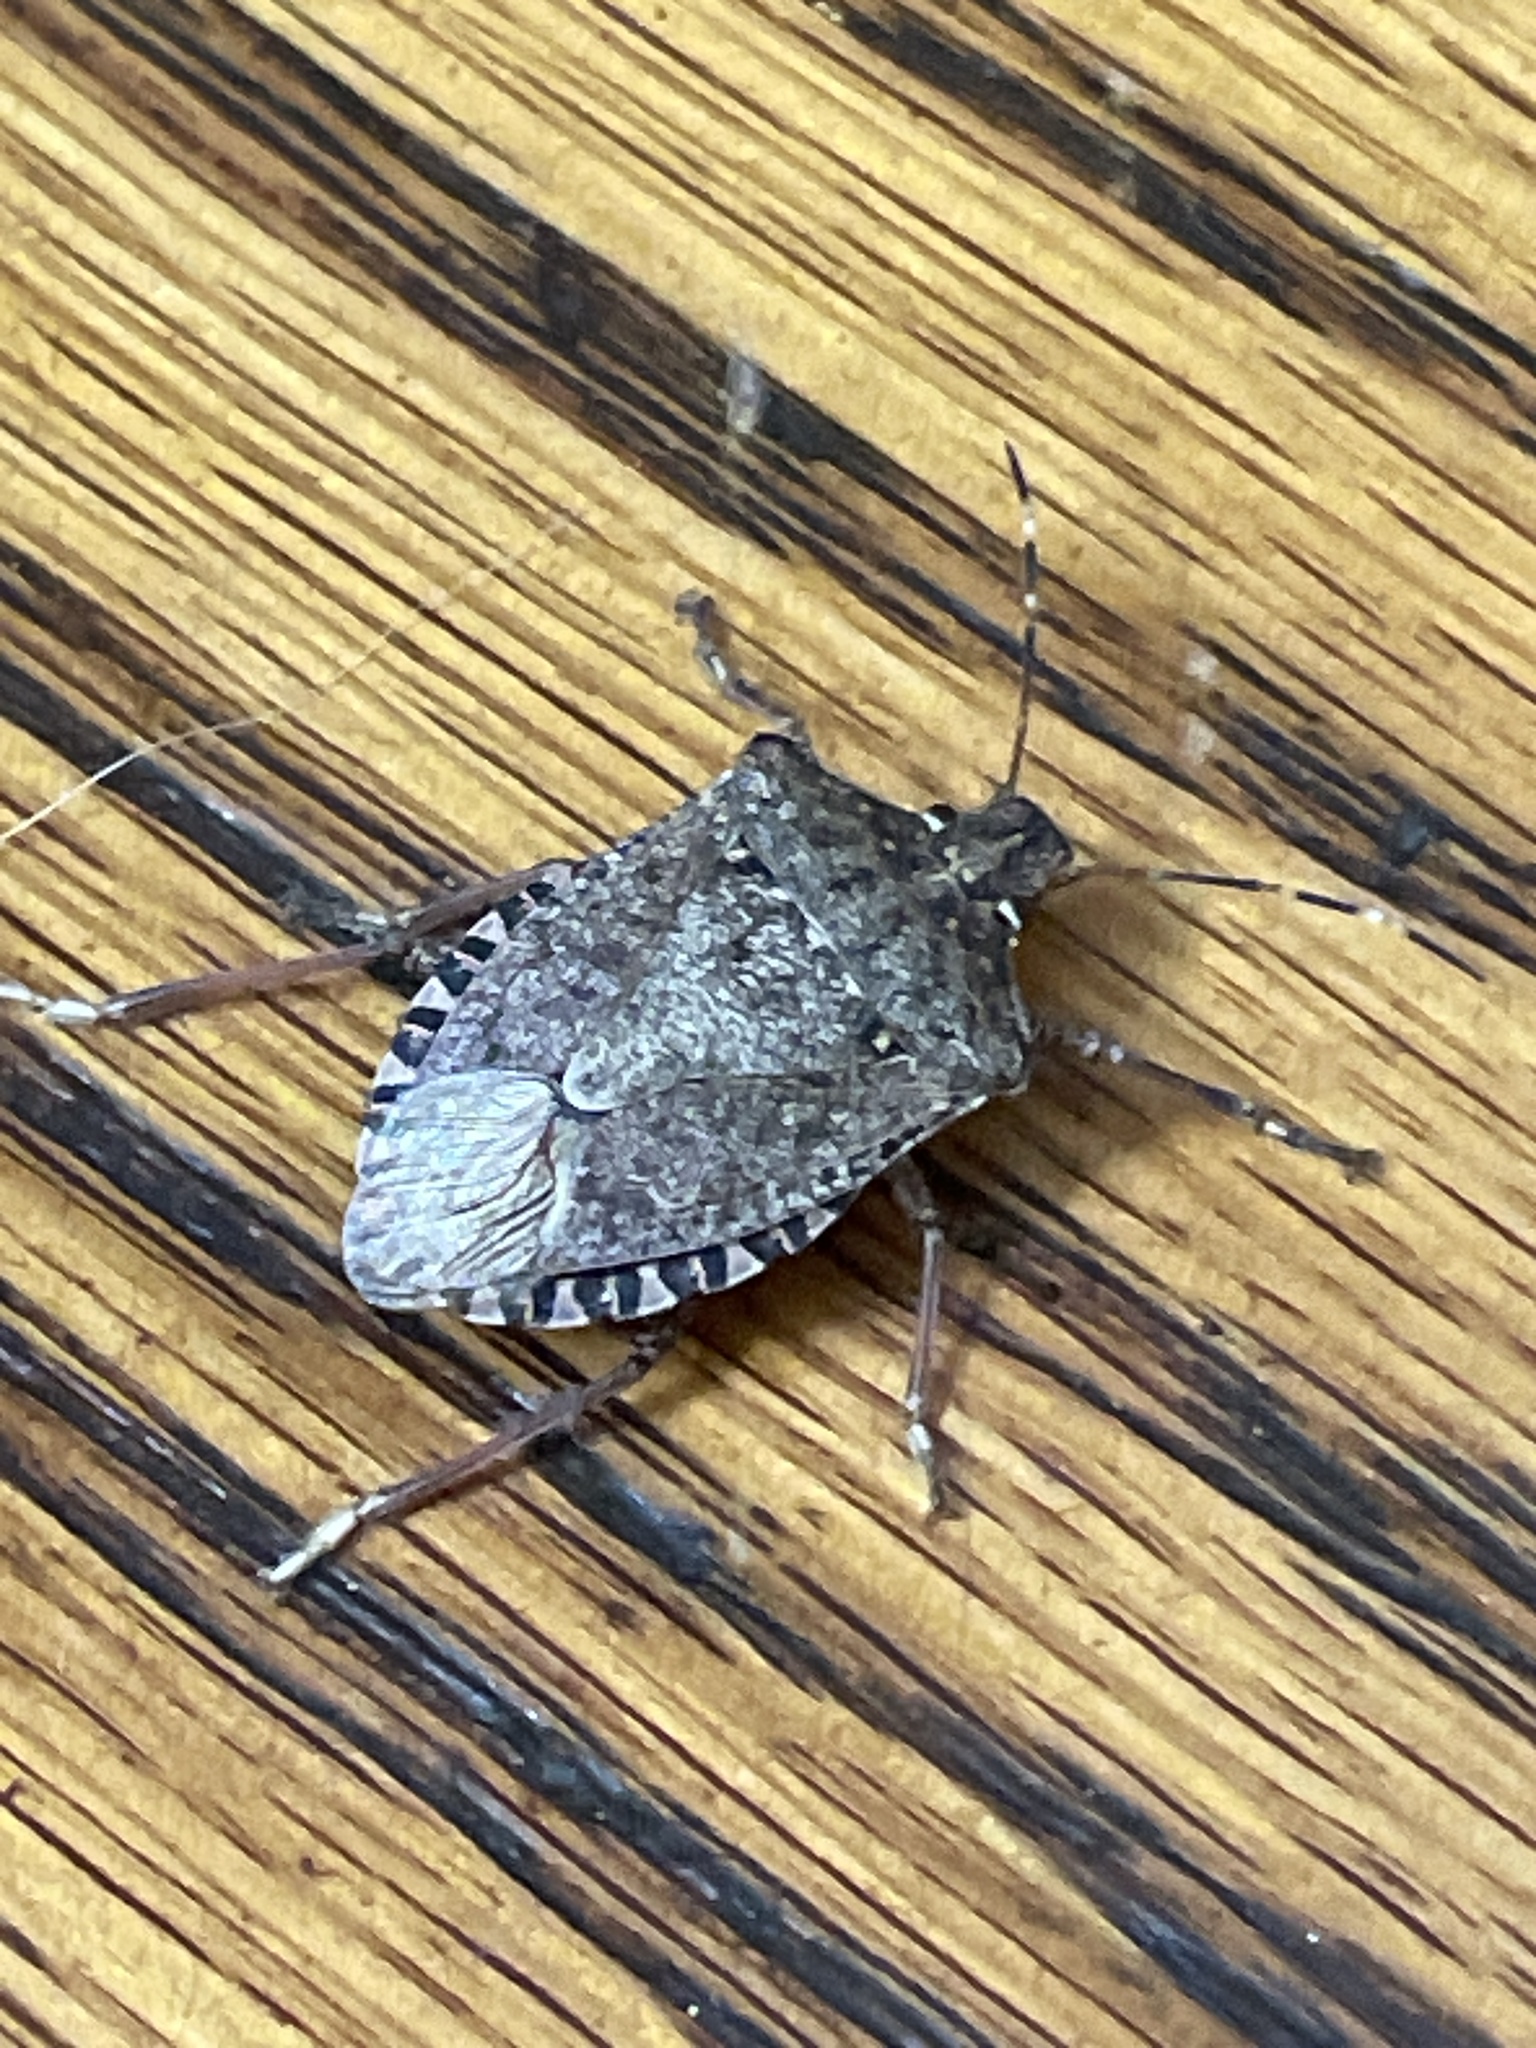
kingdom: Animalia
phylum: Arthropoda
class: Insecta
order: Hemiptera
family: Pentatomidae
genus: Halyomorpha
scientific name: Halyomorpha halys
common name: Brown marmorated stink bug
